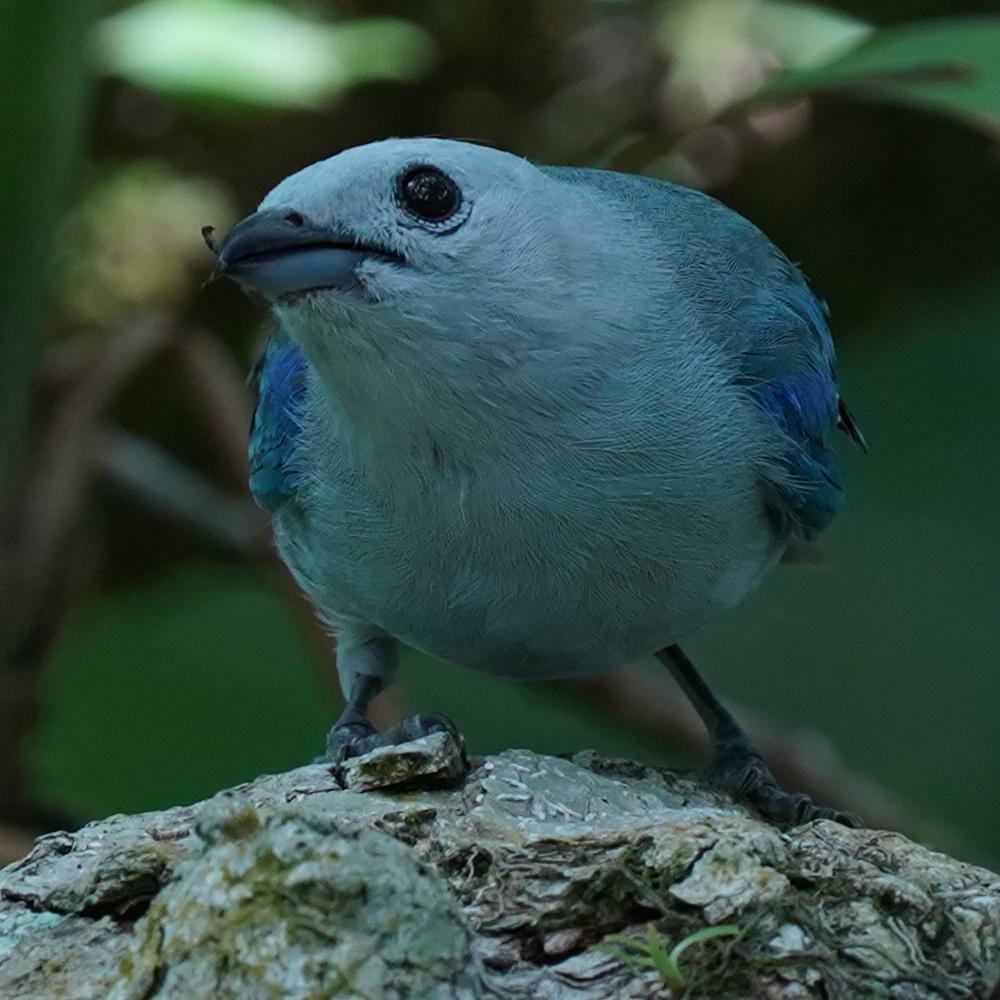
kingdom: Animalia
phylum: Chordata
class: Aves
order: Passeriformes
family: Thraupidae
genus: Thraupis
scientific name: Thraupis episcopus
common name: Blue-grey tanager
